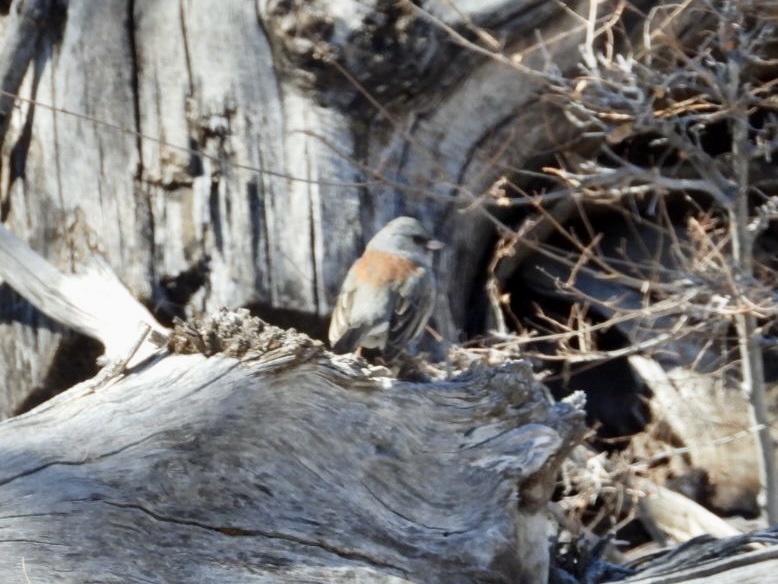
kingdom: Animalia
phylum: Chordata
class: Aves
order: Passeriformes
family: Passerellidae
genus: Junco
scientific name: Junco hyemalis
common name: Dark-eyed junco
